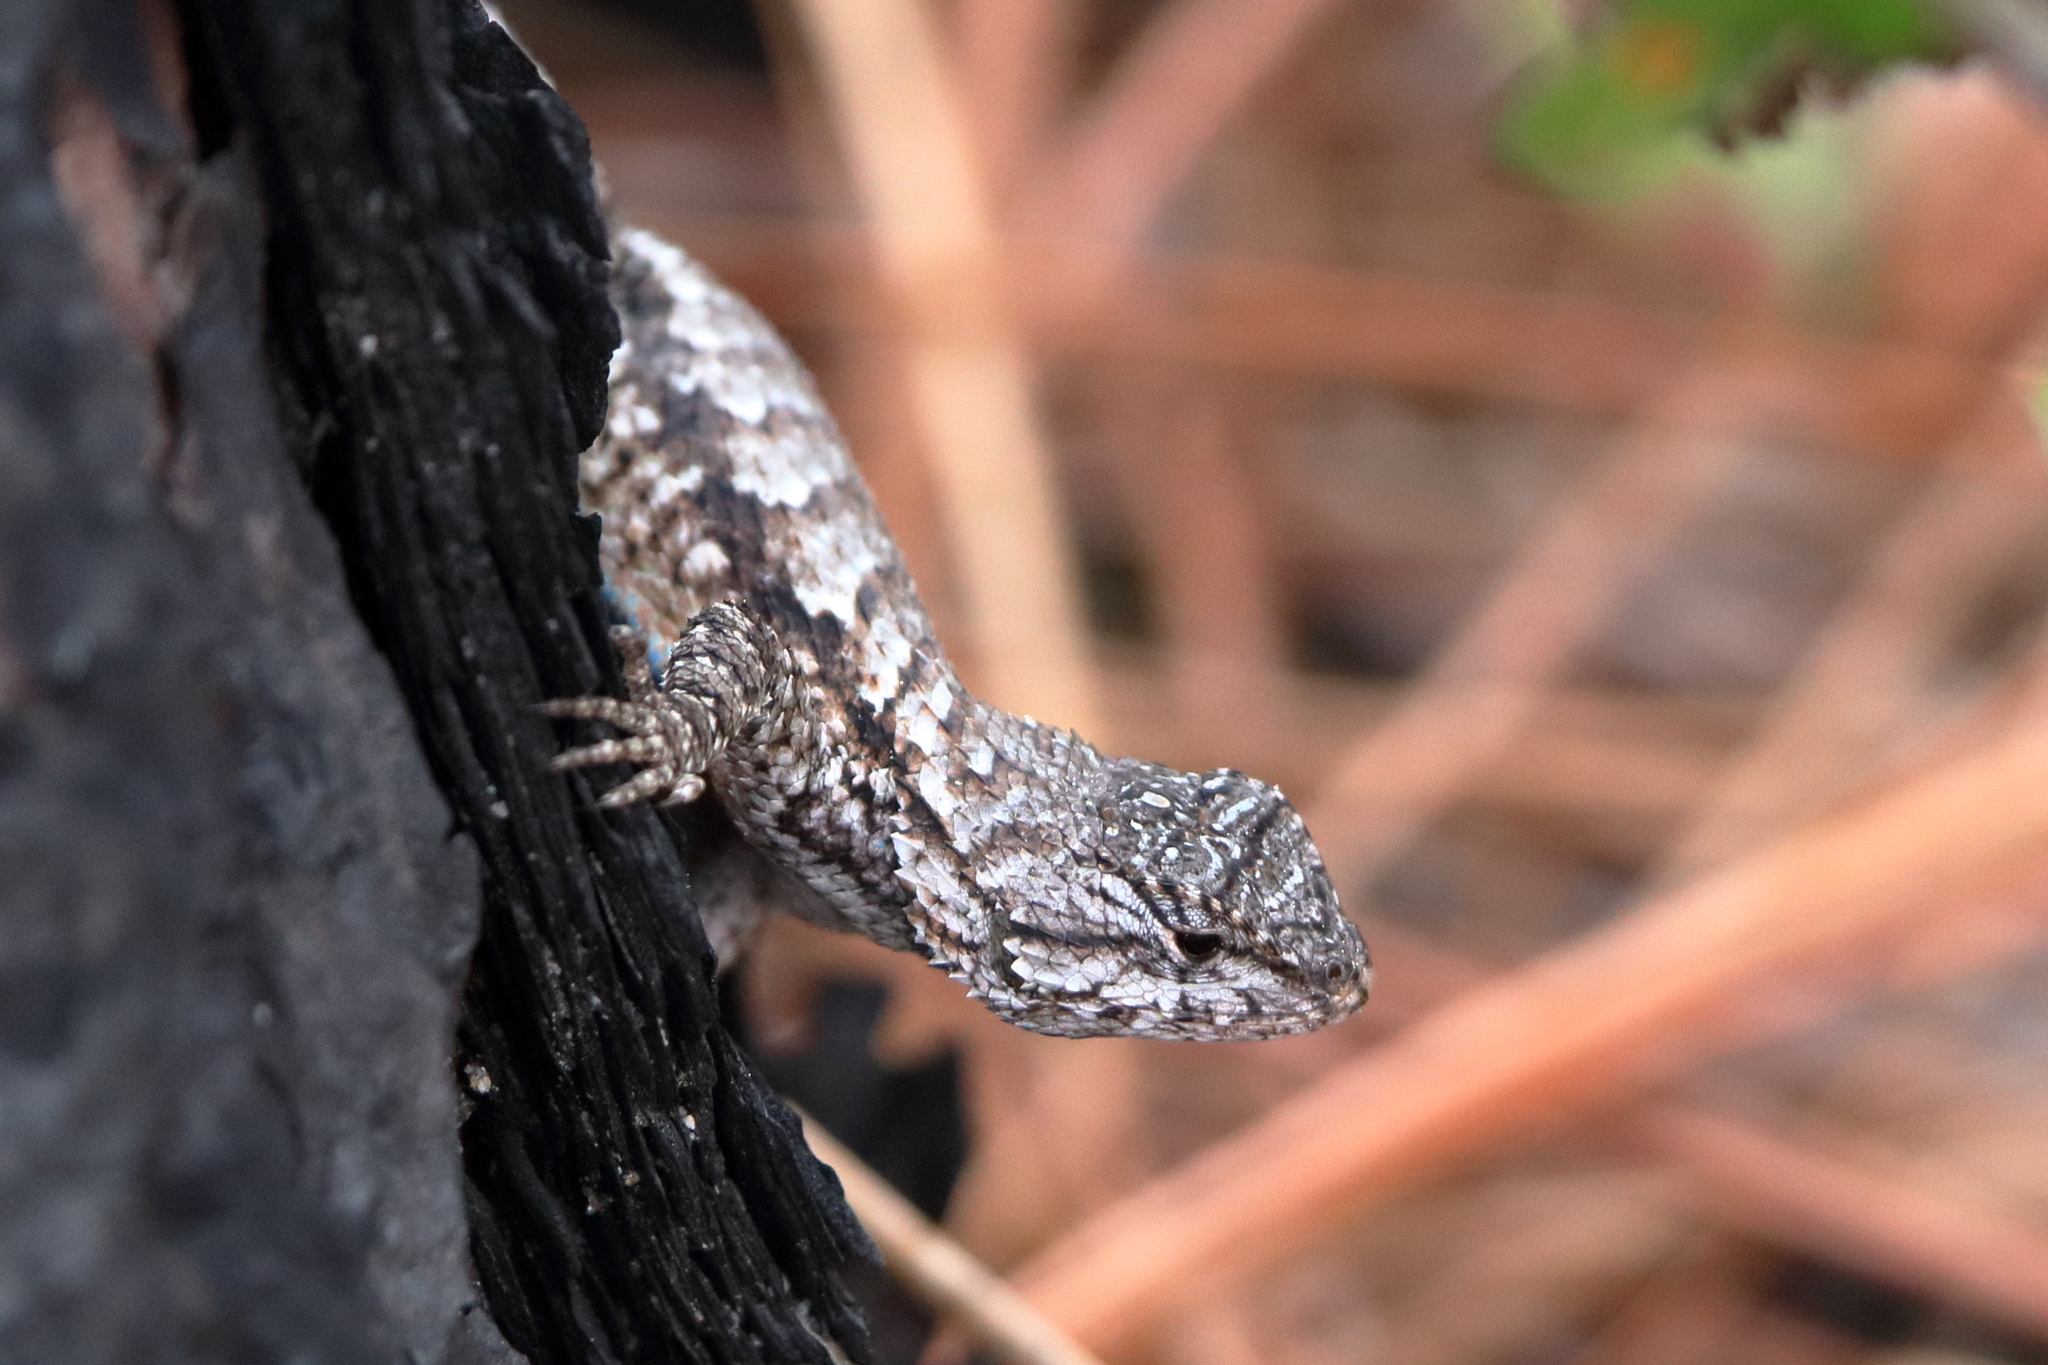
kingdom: Animalia
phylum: Chordata
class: Squamata
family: Phrynosomatidae
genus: Sceloporus
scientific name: Sceloporus undulatus
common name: Eastern fence lizard
